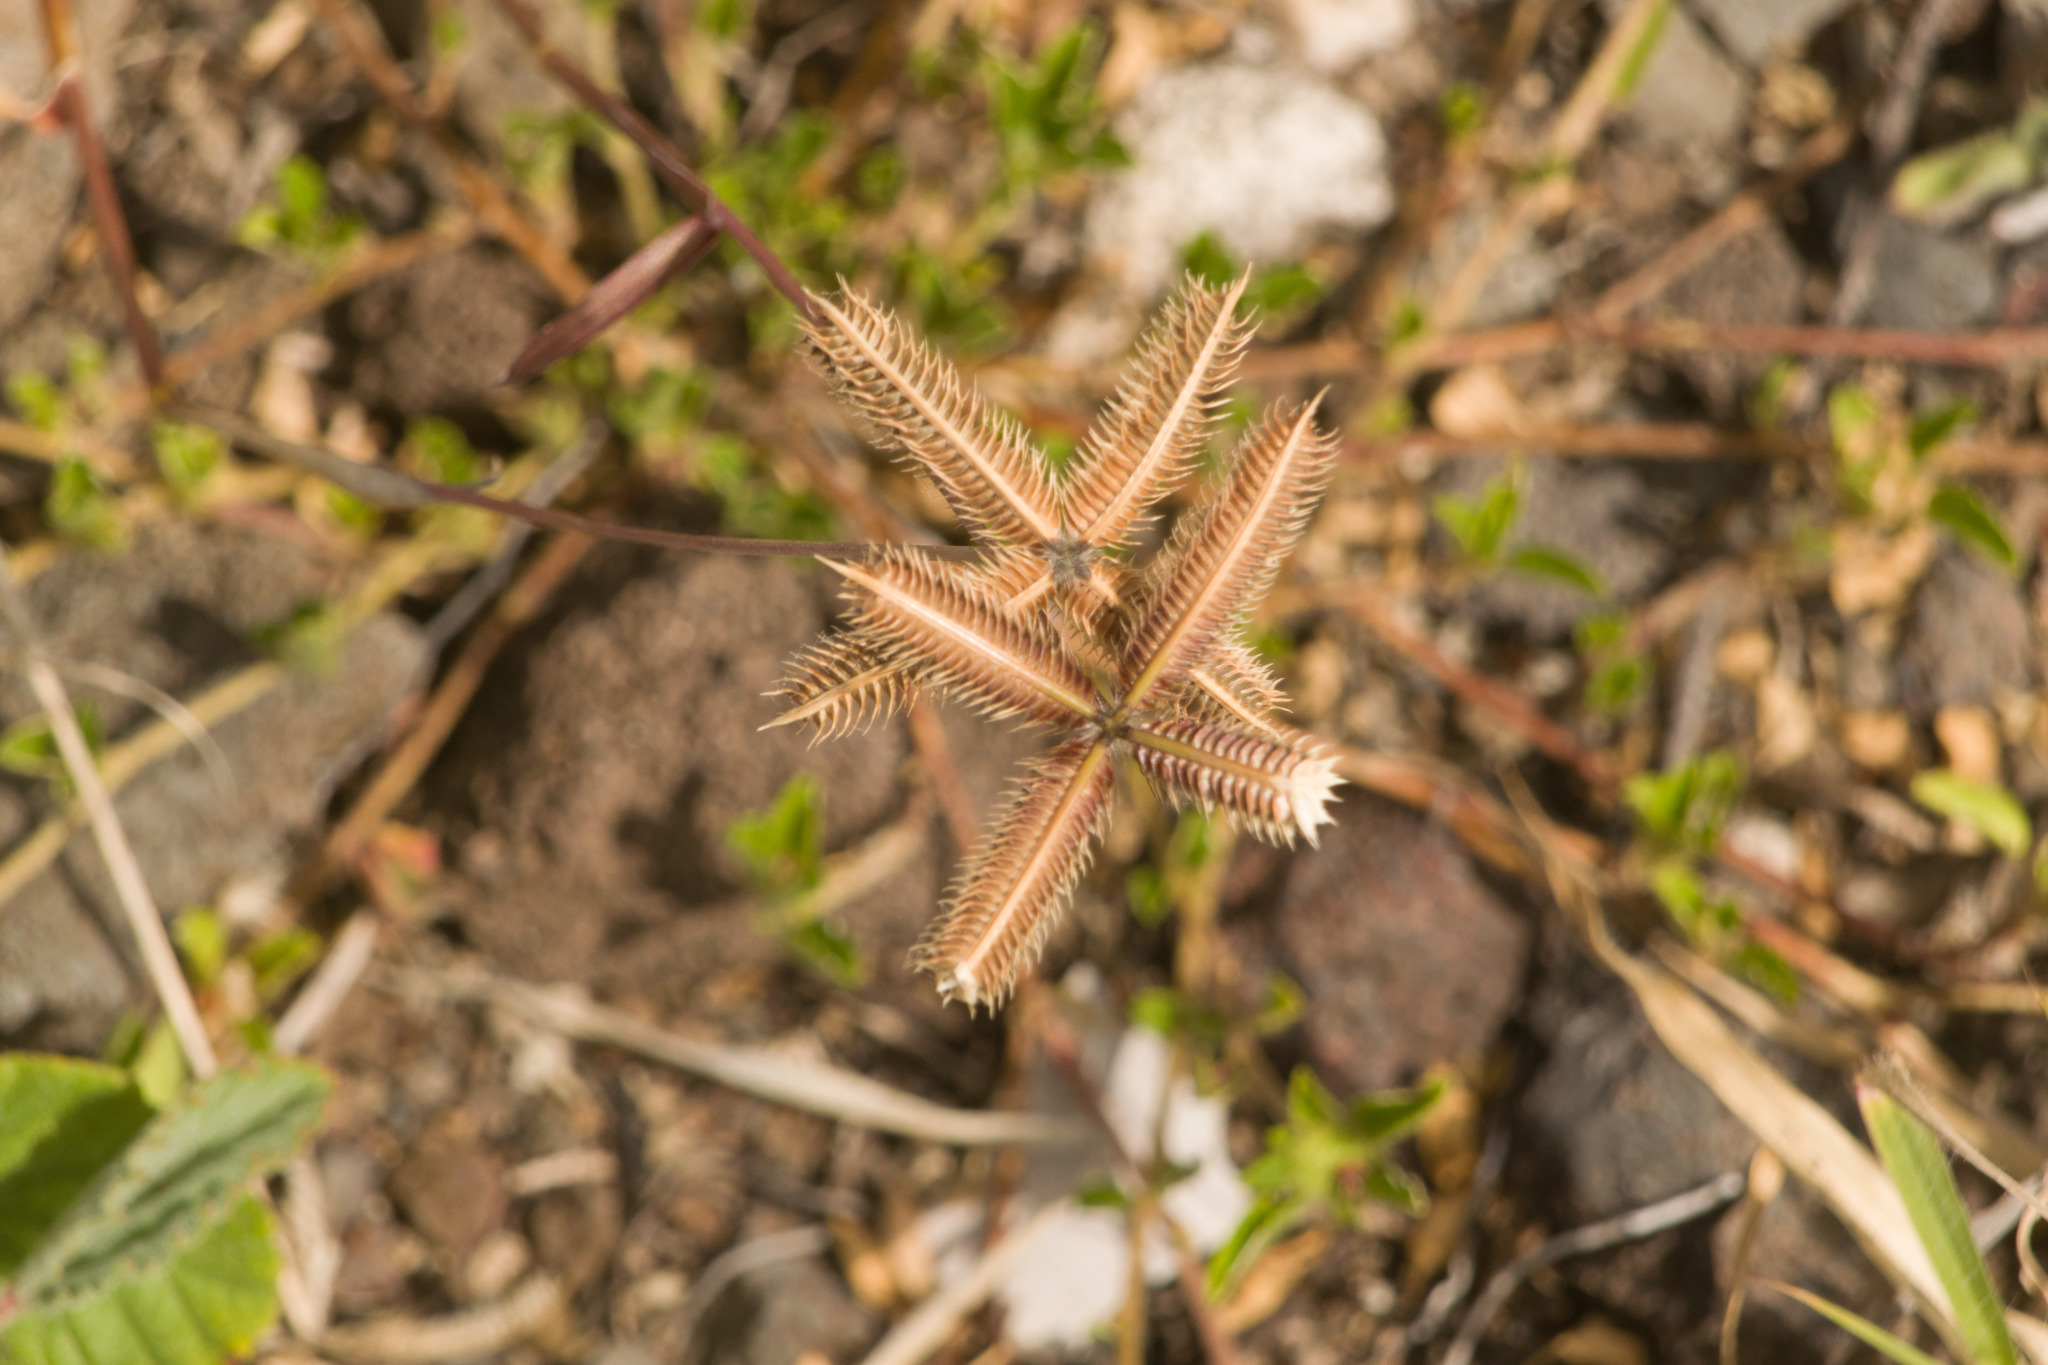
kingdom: Plantae
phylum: Tracheophyta
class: Liliopsida
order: Poales
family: Poaceae
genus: Dactyloctenium
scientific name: Dactyloctenium aegyptium
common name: Egyptian grass
